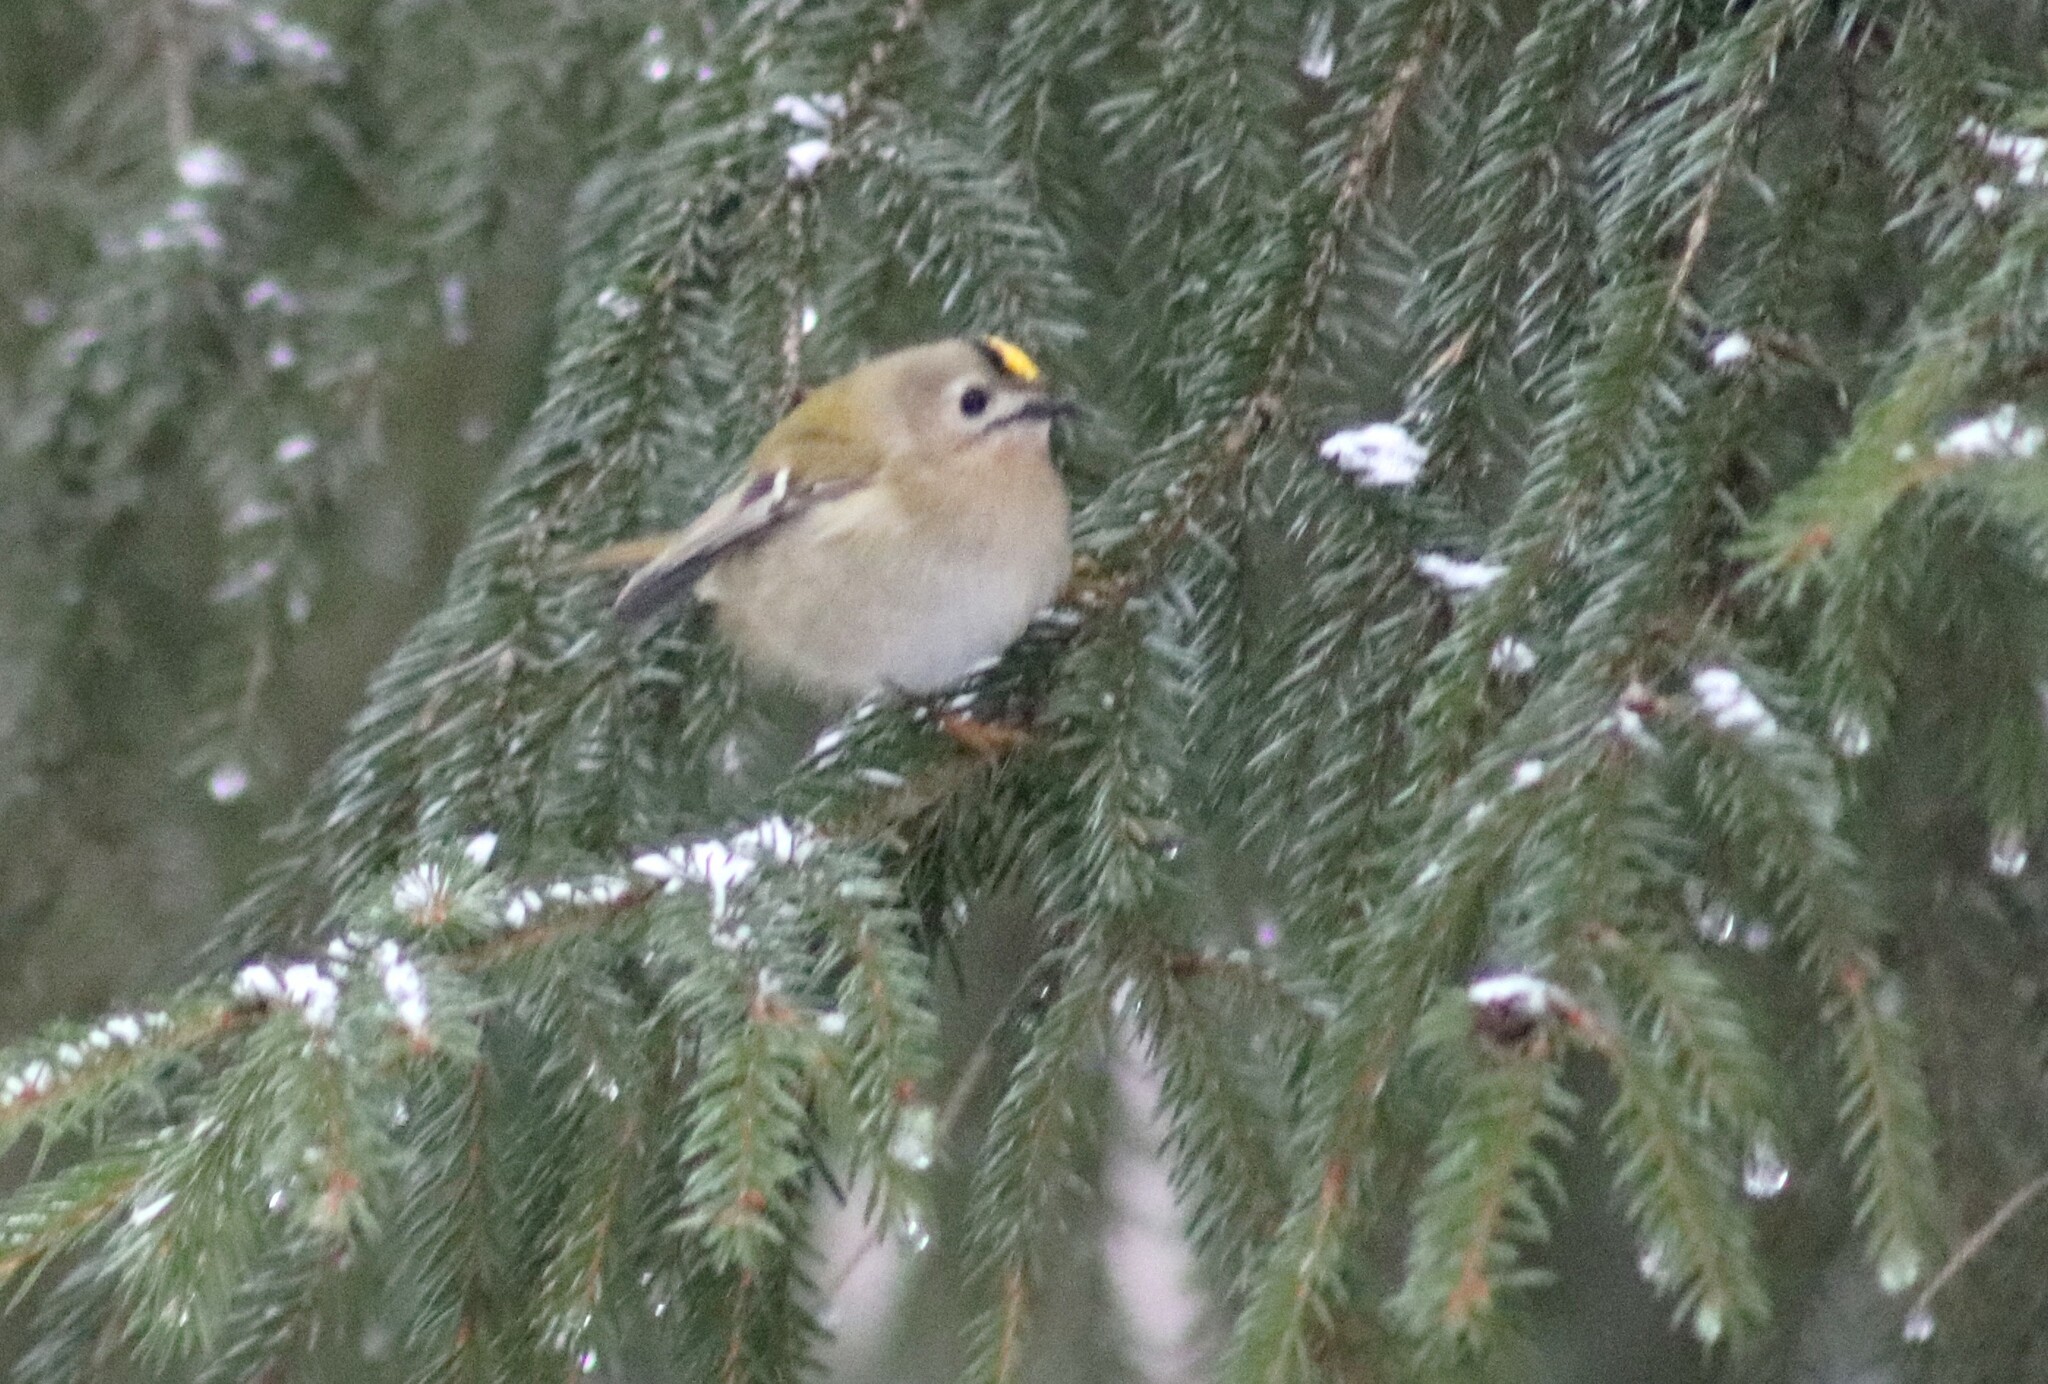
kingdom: Animalia
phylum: Chordata
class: Aves
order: Passeriformes
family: Regulidae
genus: Regulus
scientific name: Regulus regulus
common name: Goldcrest
